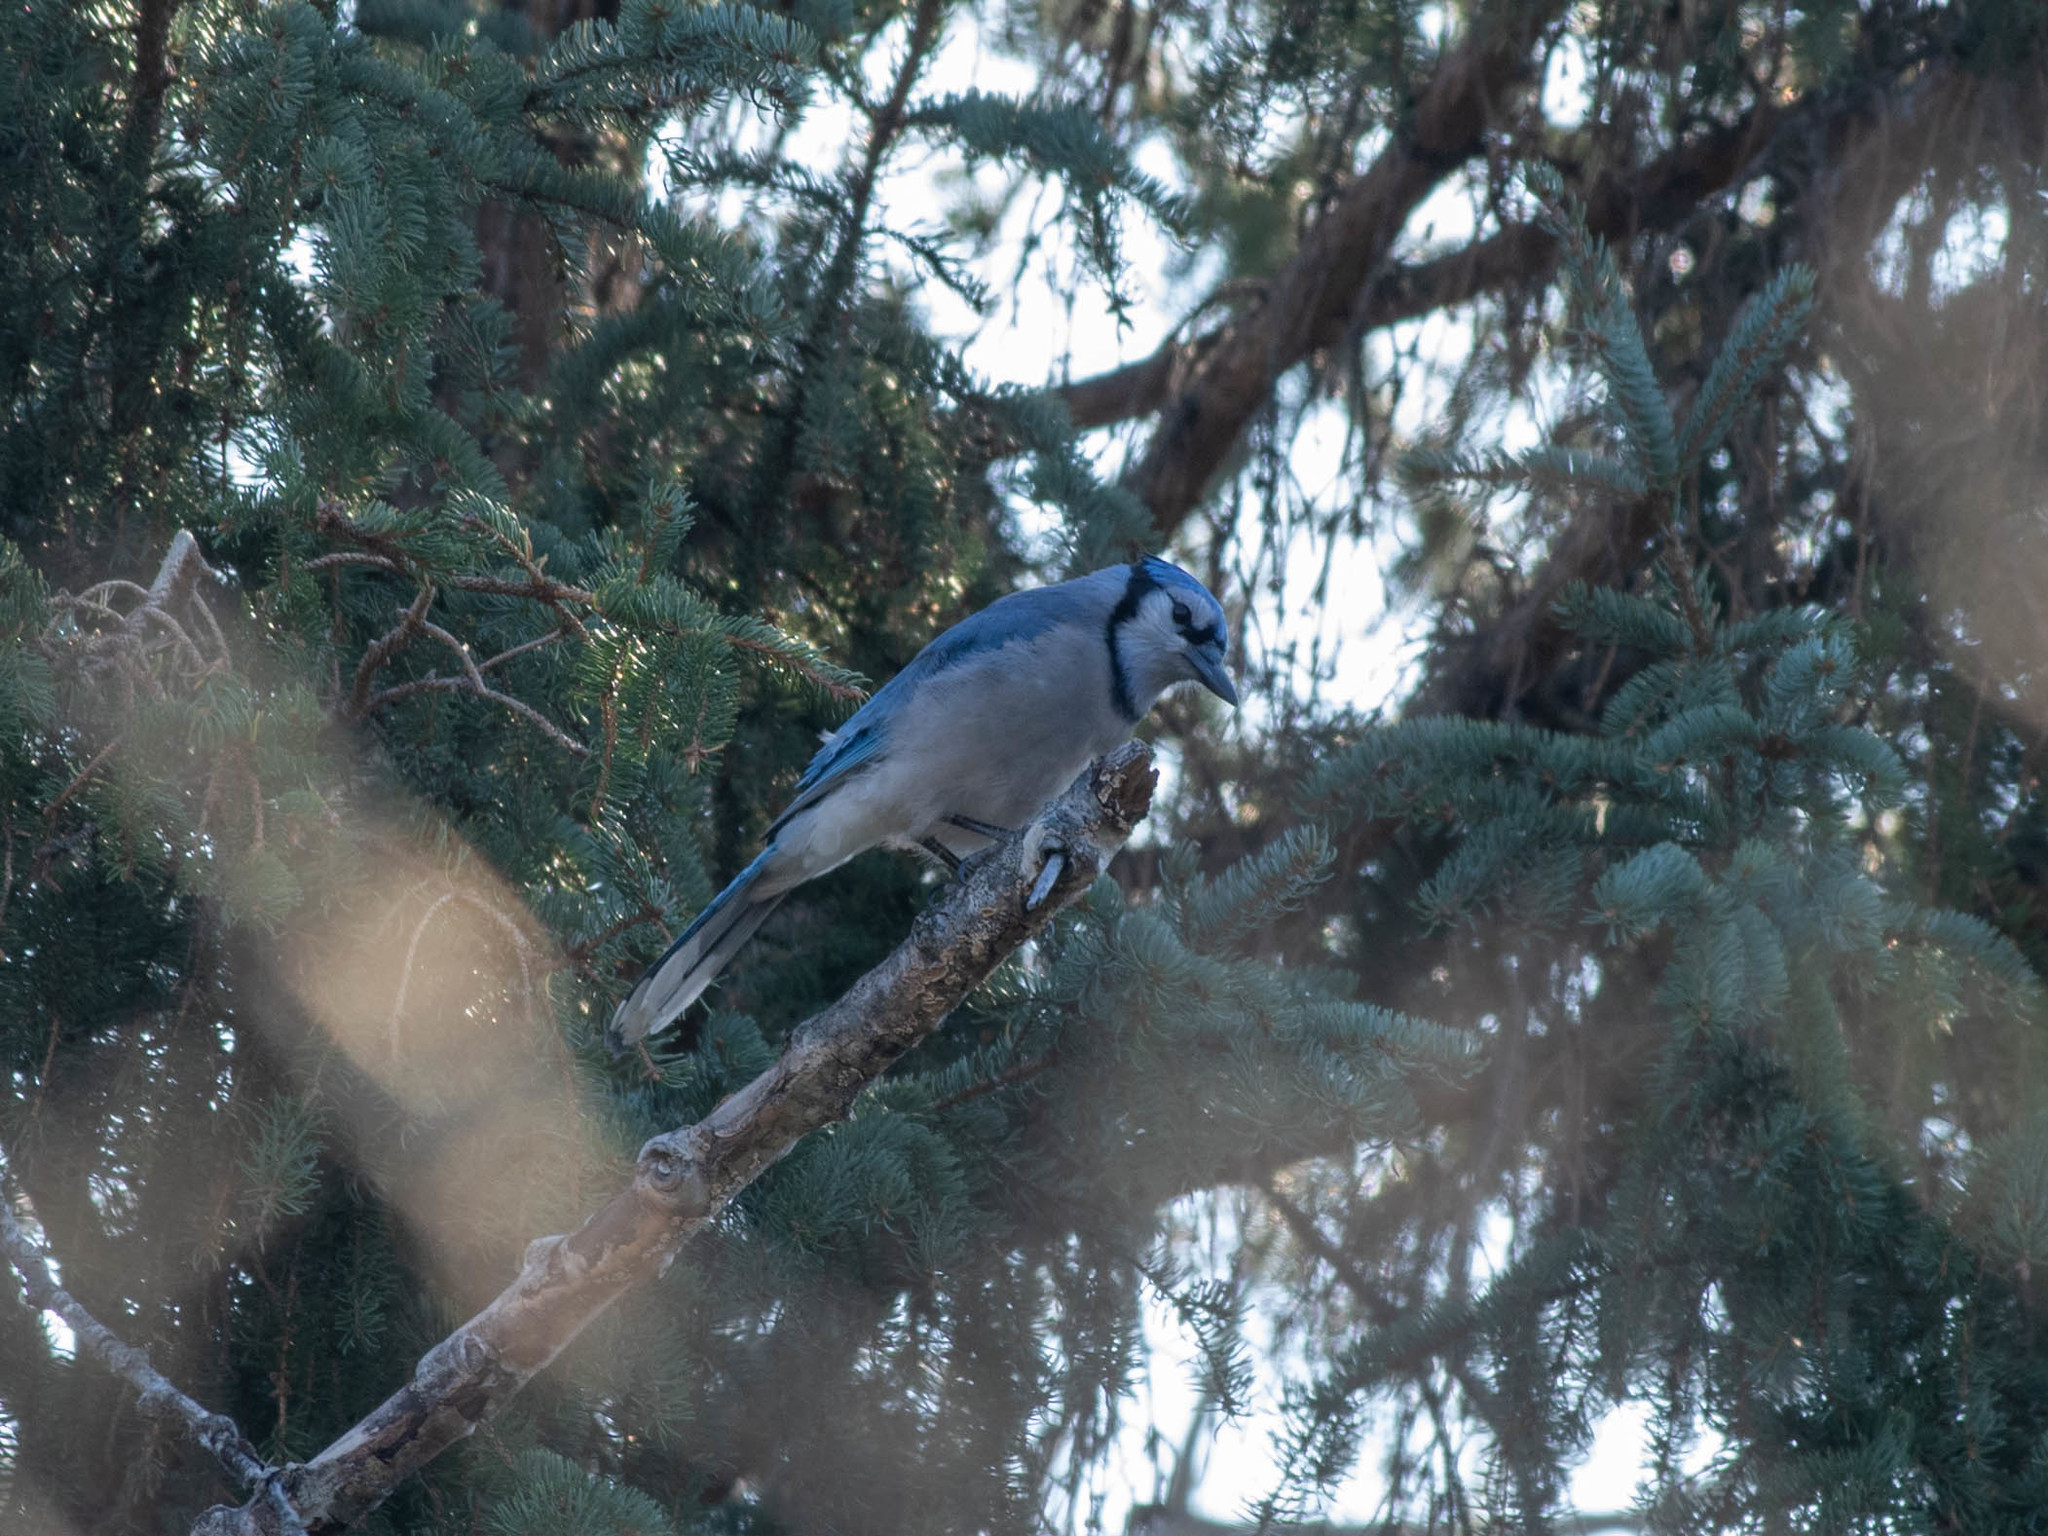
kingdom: Animalia
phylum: Chordata
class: Aves
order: Passeriformes
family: Corvidae
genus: Cyanocitta
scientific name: Cyanocitta cristata
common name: Blue jay
